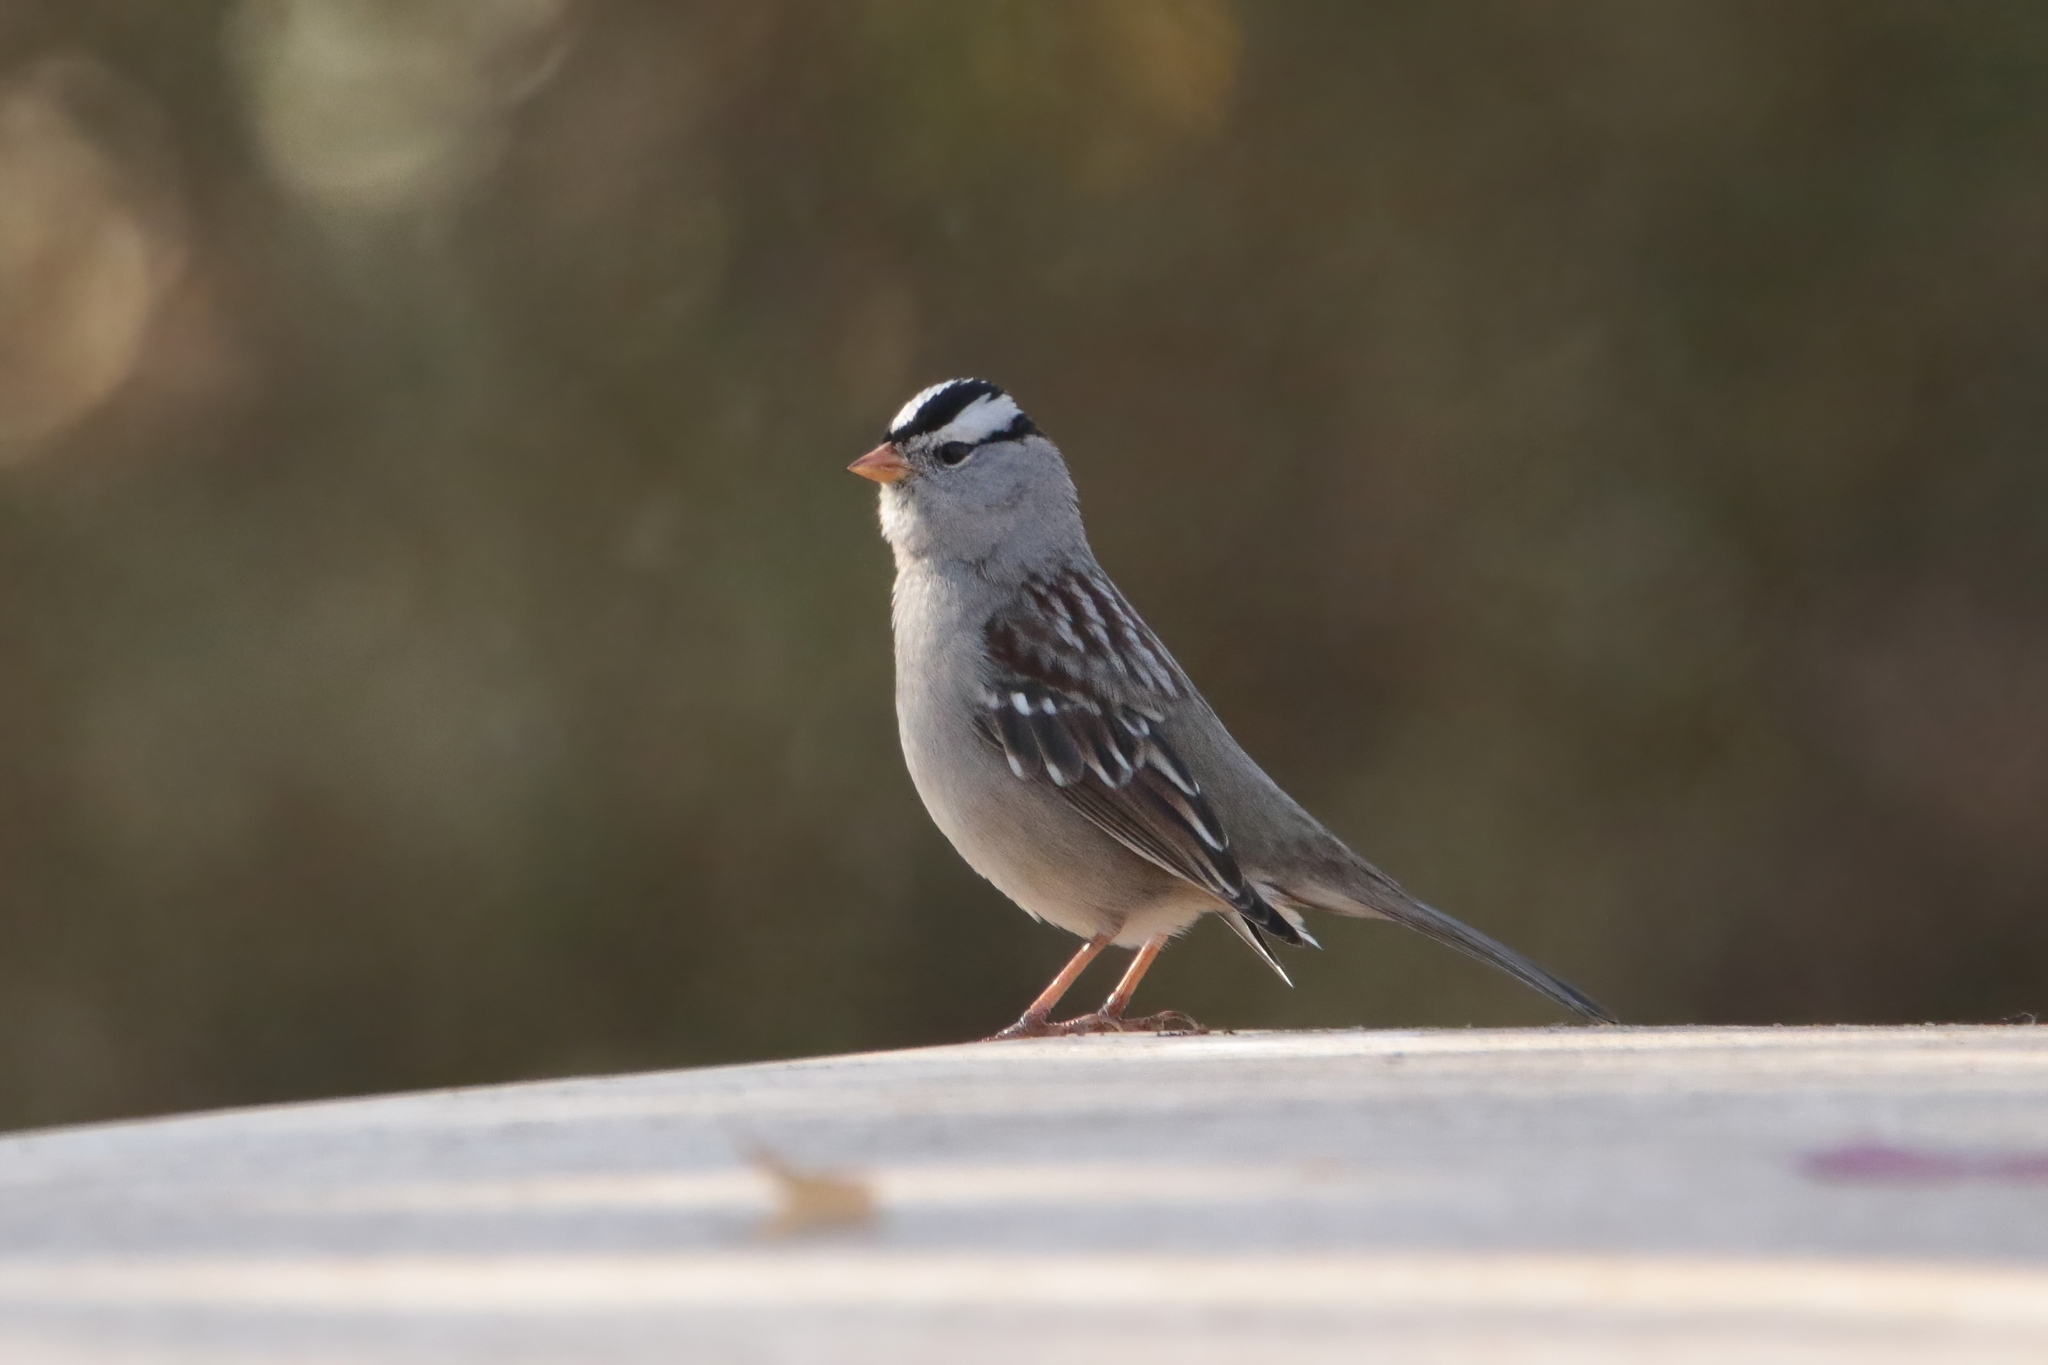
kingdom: Animalia
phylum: Chordata
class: Aves
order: Passeriformes
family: Passerellidae
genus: Zonotrichia
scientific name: Zonotrichia leucophrys
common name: White-crowned sparrow
